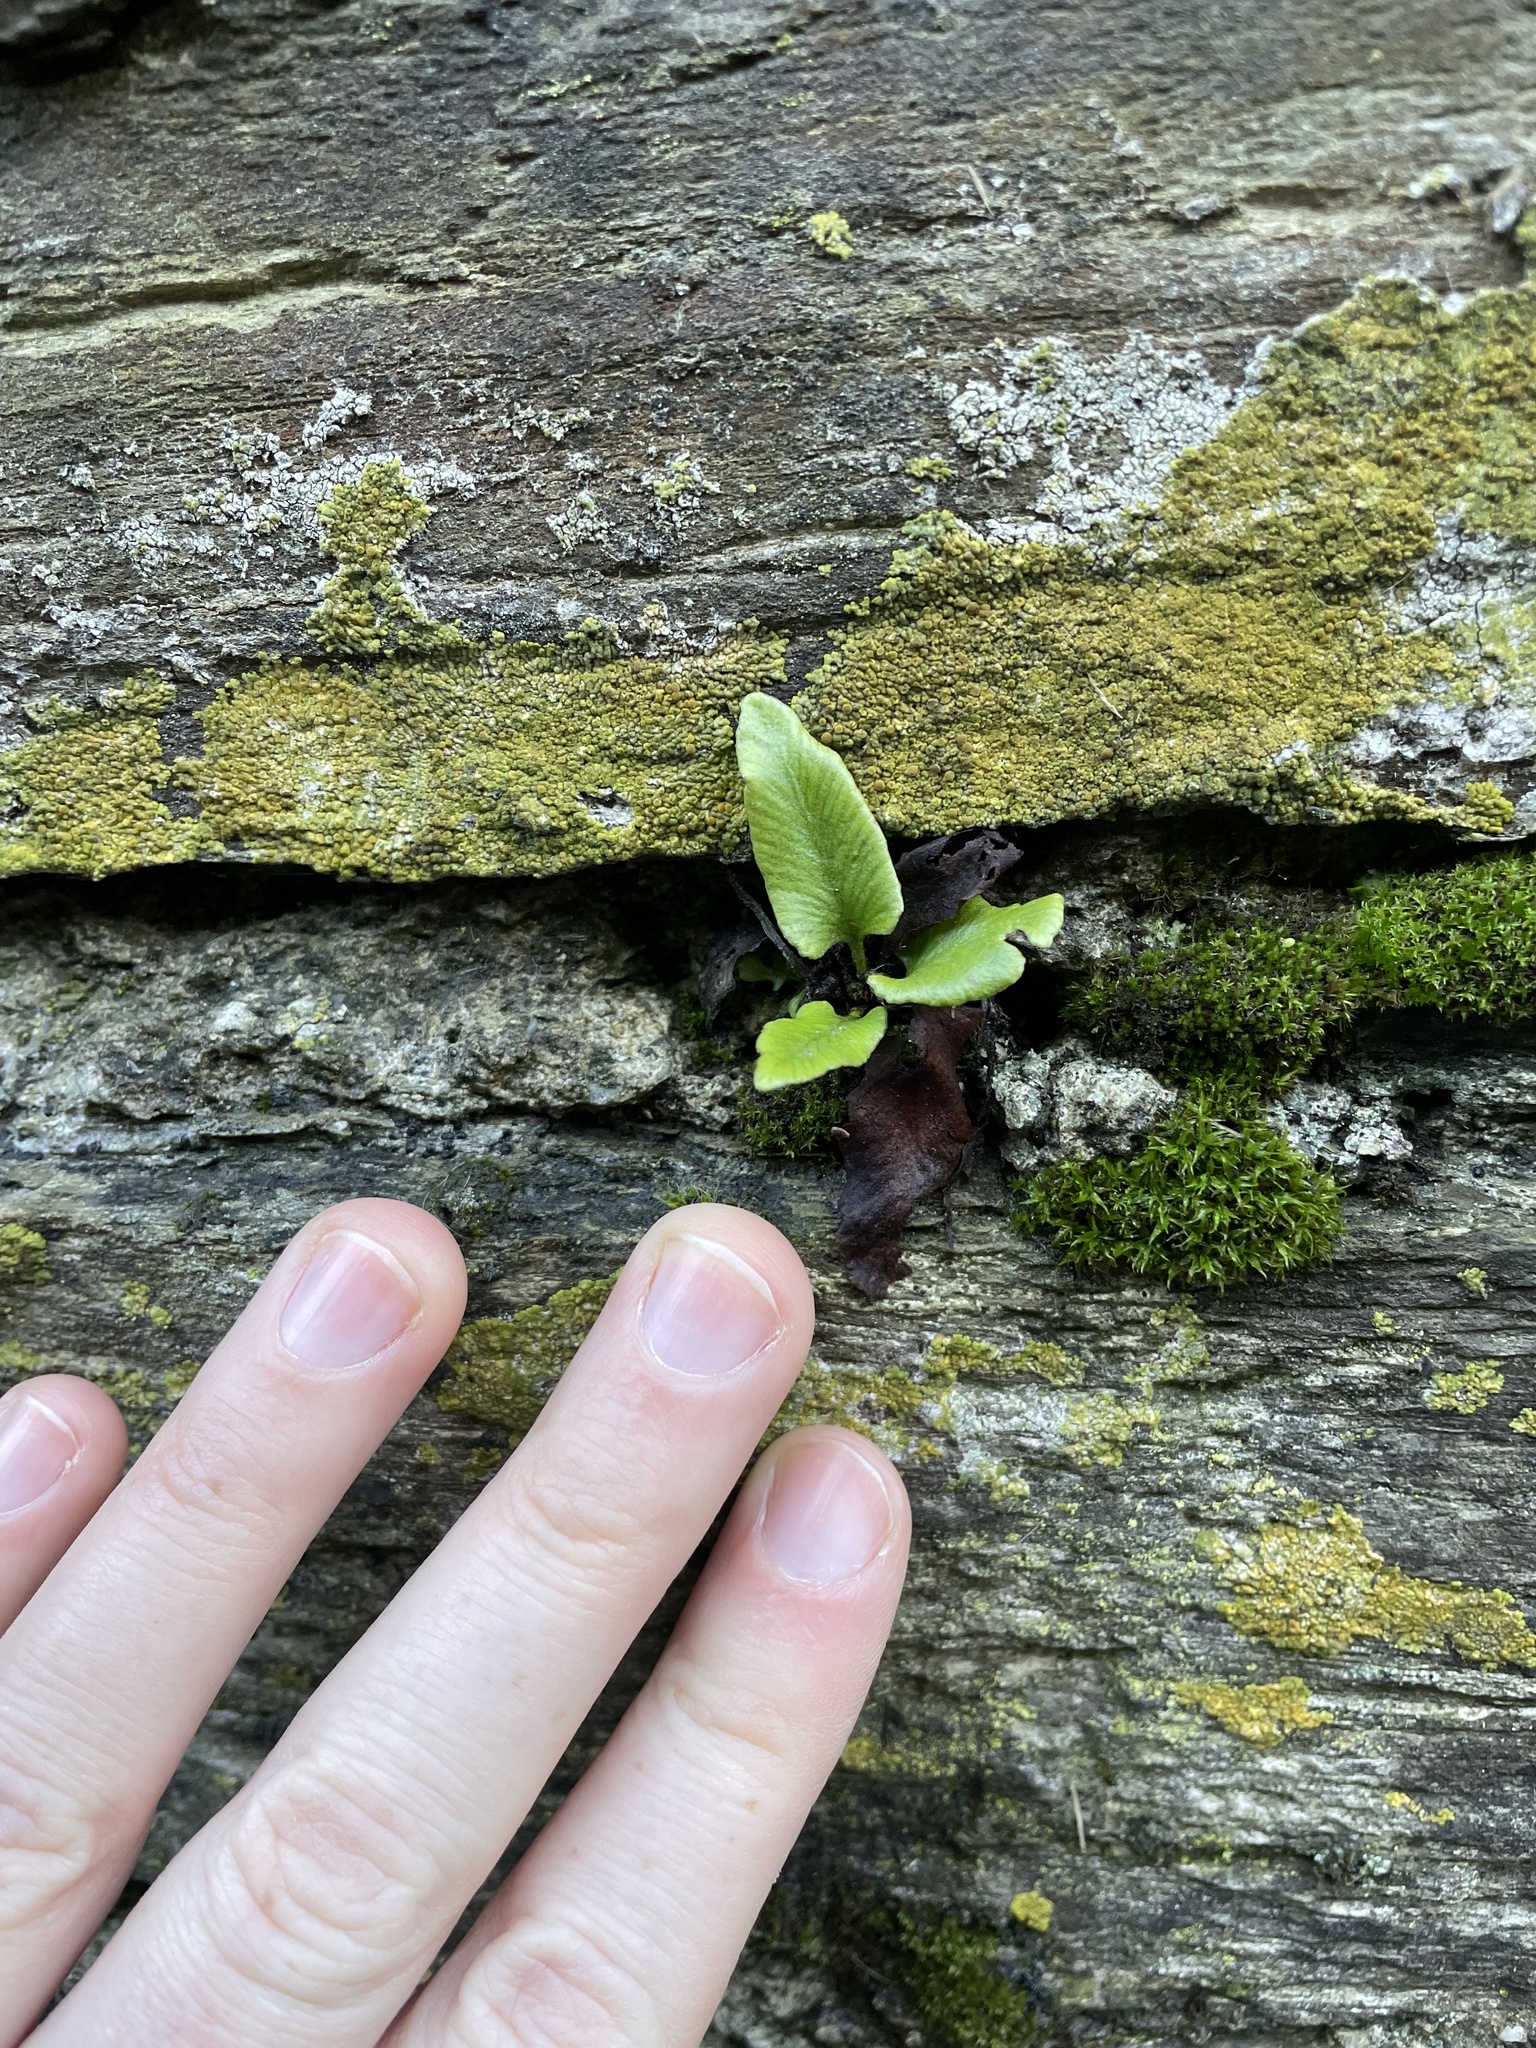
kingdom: Plantae
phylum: Tracheophyta
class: Polypodiopsida
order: Polypodiales
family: Aspleniaceae
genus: Asplenium
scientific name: Asplenium scolopendrium
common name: Hart's-tongue fern
